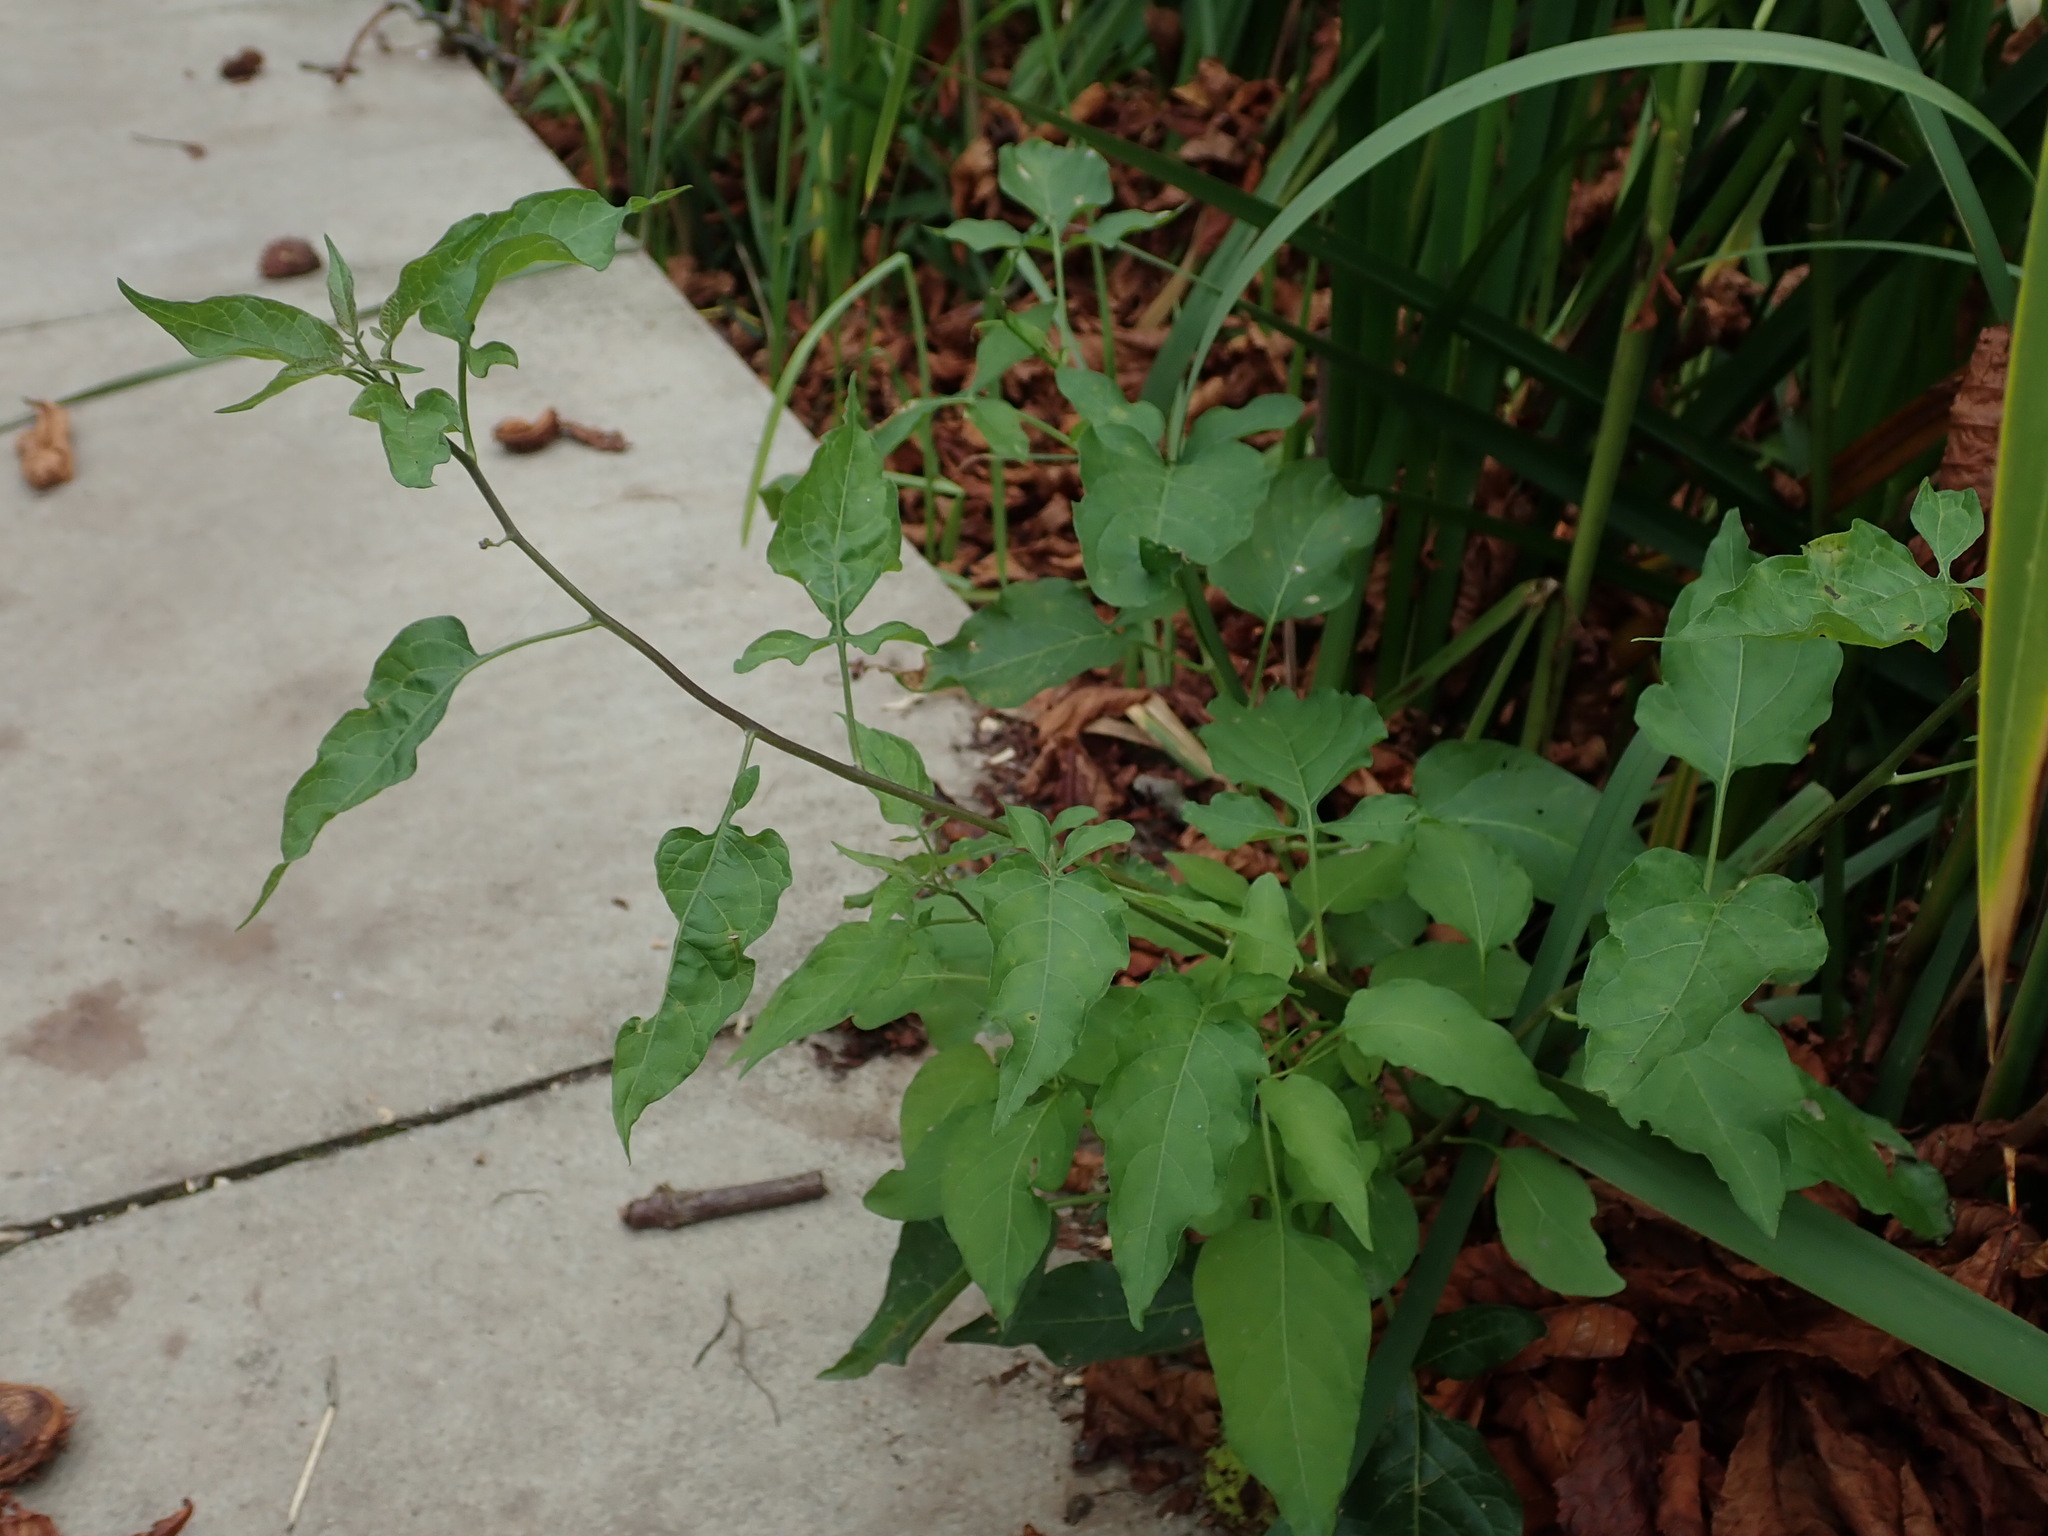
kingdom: Plantae
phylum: Tracheophyta
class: Magnoliopsida
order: Solanales
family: Solanaceae
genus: Solanum
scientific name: Solanum dulcamara
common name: Climbing nightshade
